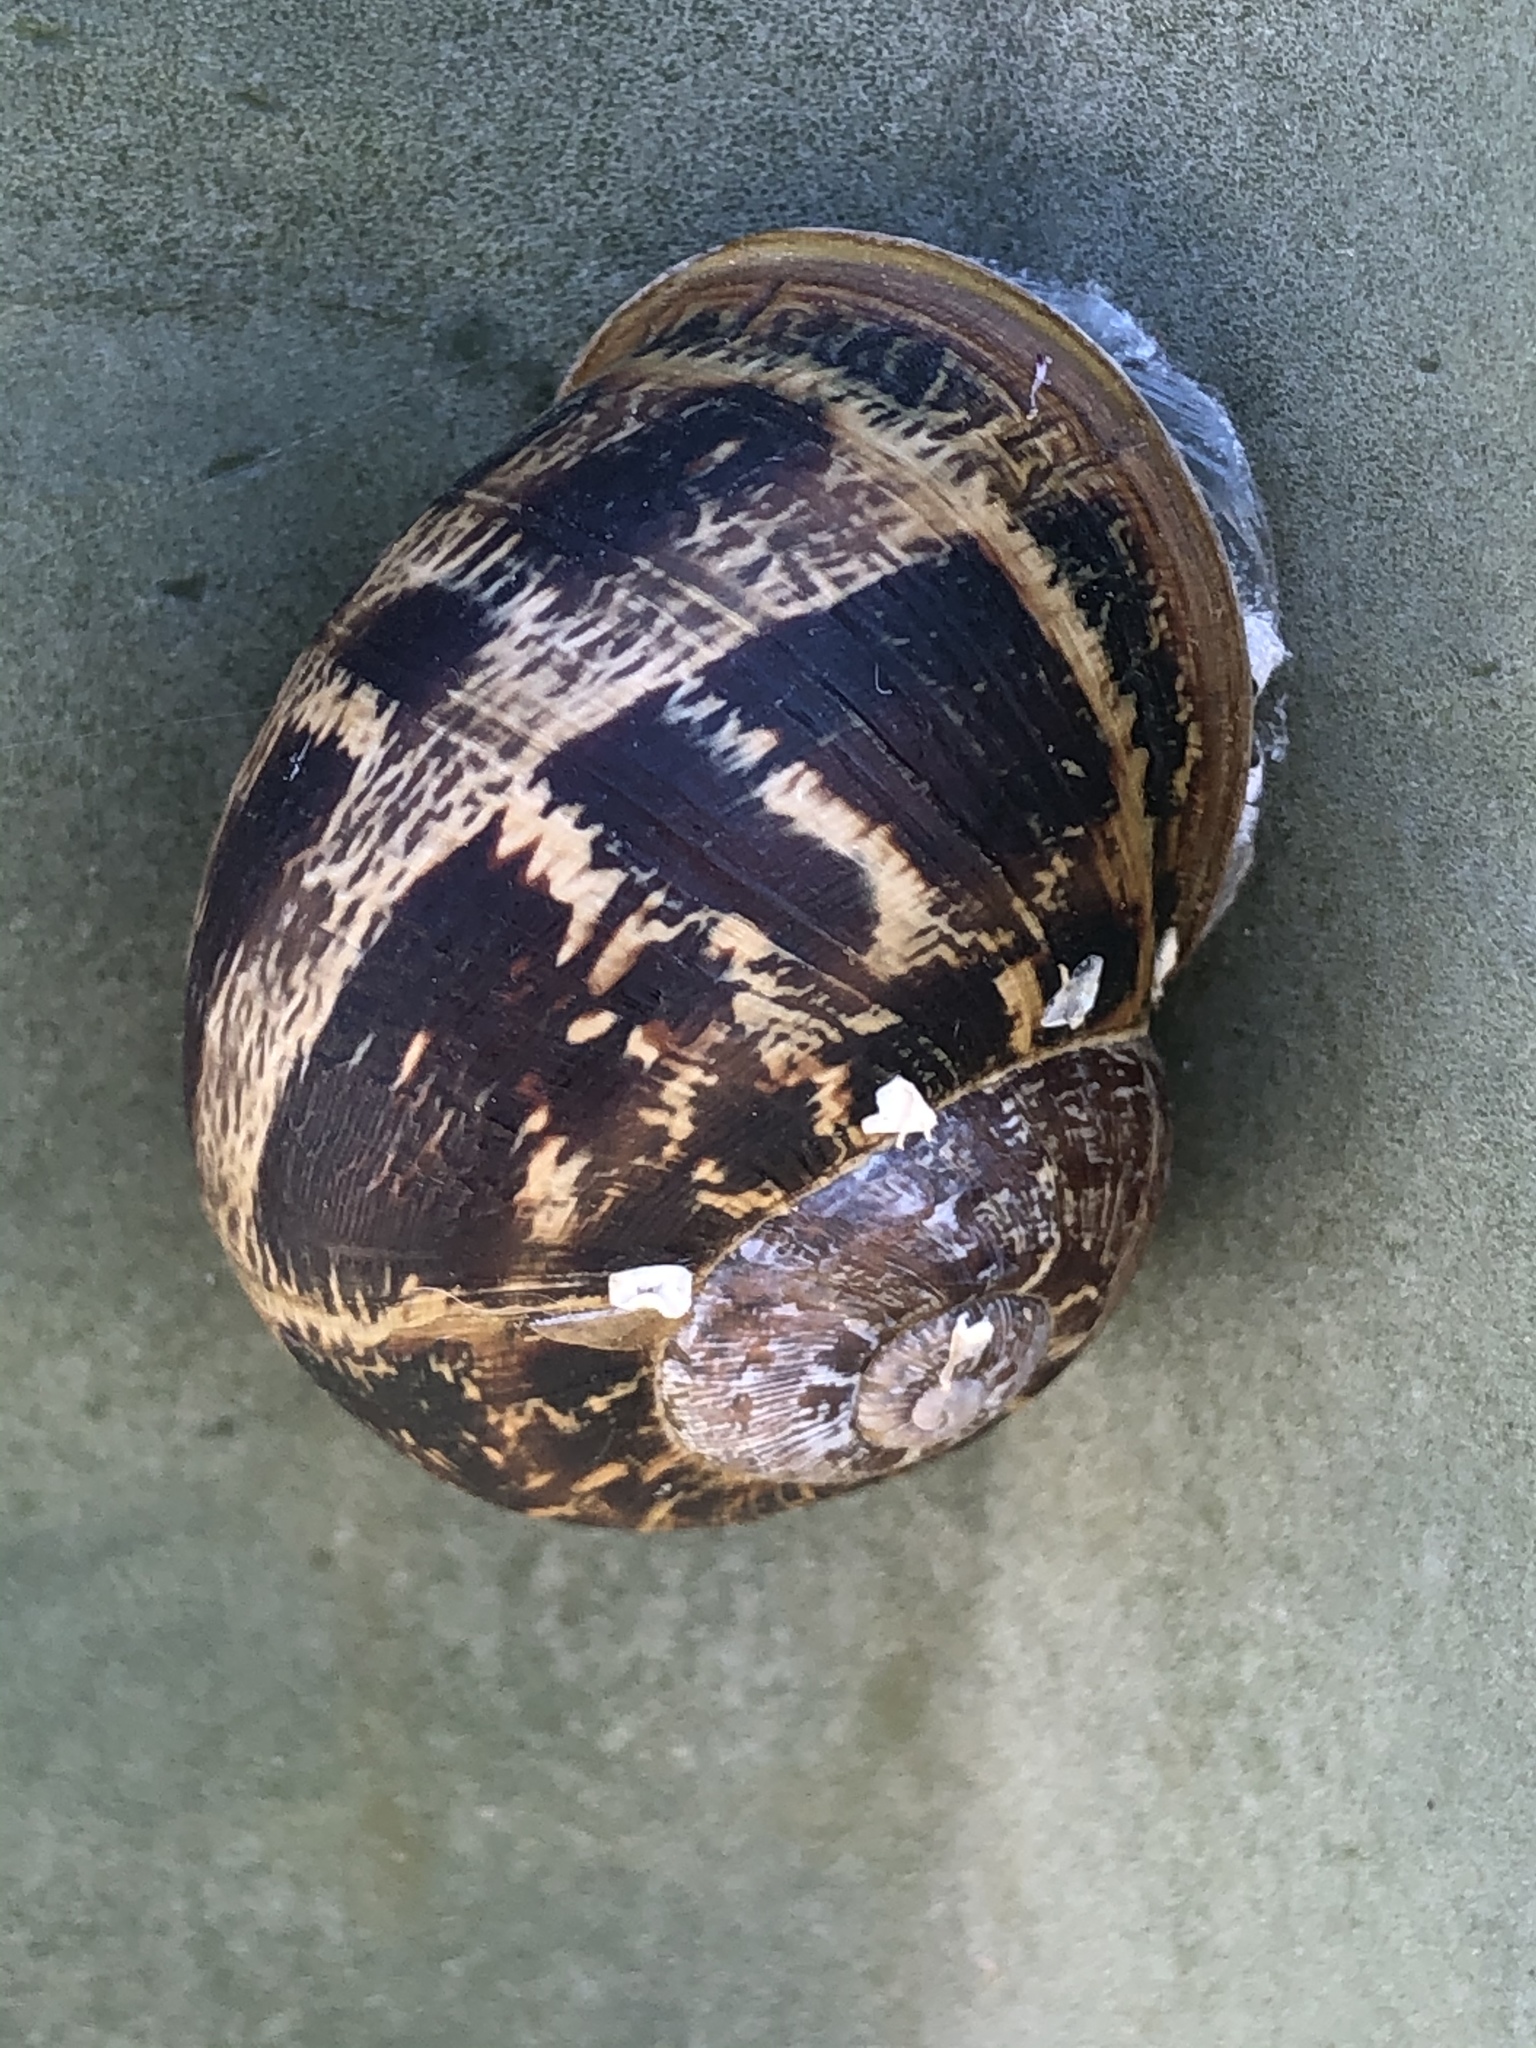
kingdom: Animalia
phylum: Mollusca
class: Gastropoda
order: Stylommatophora
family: Helicidae
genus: Cornu
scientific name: Cornu aspersum
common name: Brown garden snail
